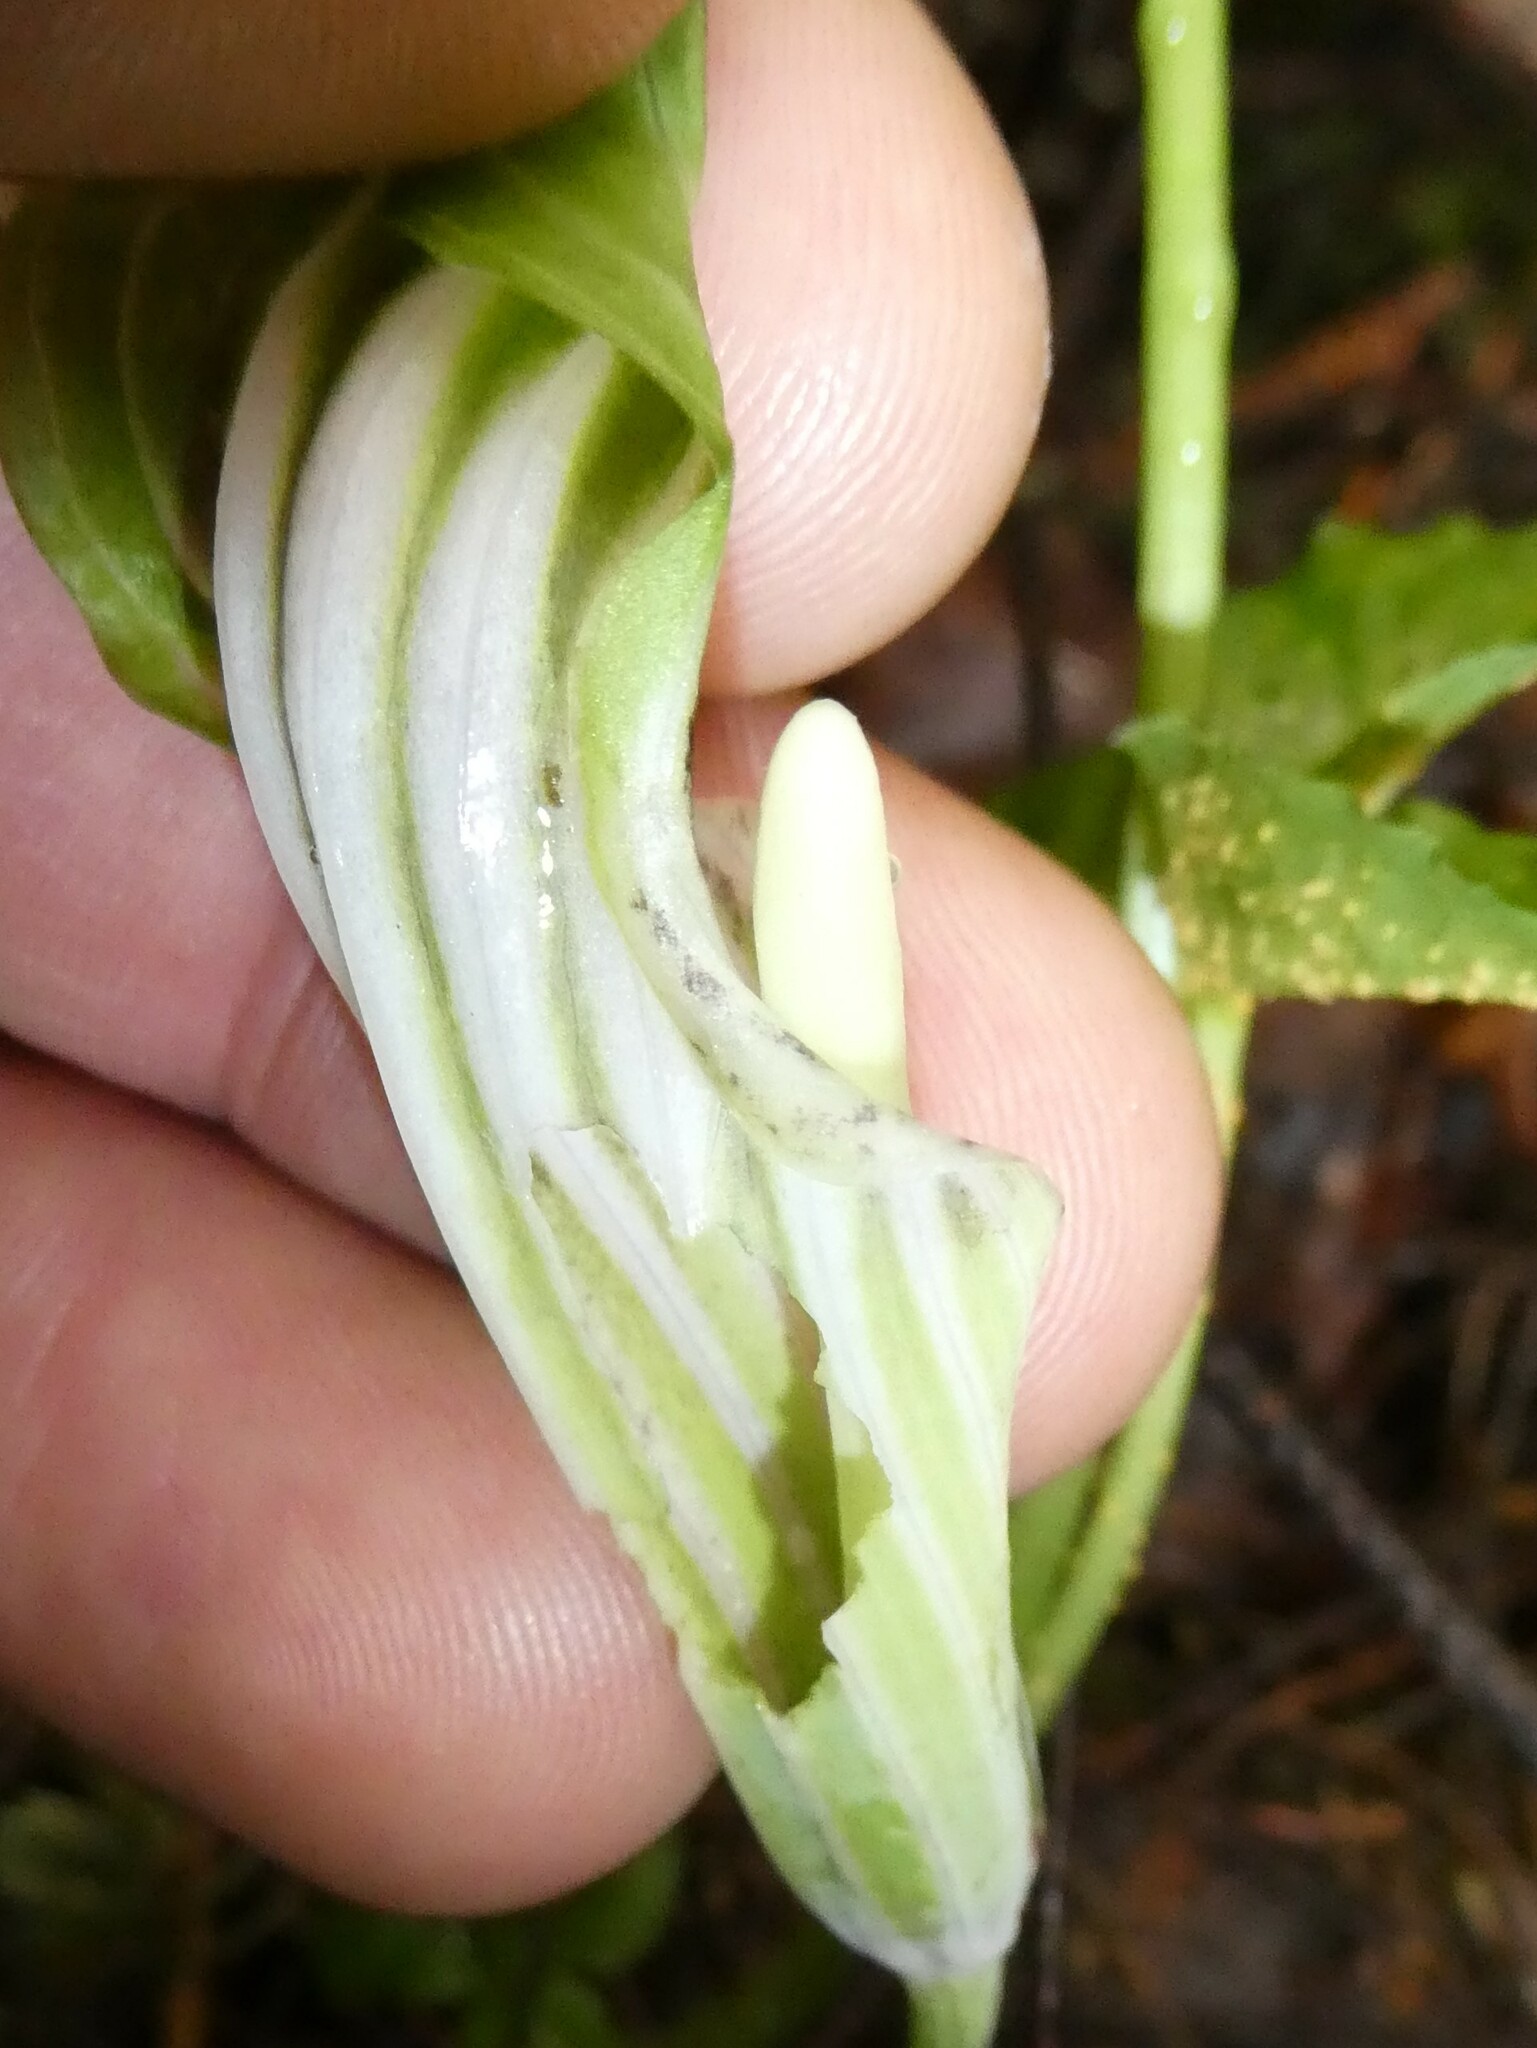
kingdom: Plantae
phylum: Tracheophyta
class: Liliopsida
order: Alismatales
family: Araceae
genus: Arisaema
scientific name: Arisaema stewardsonii
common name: Swamp jack-in-the-pulpit
